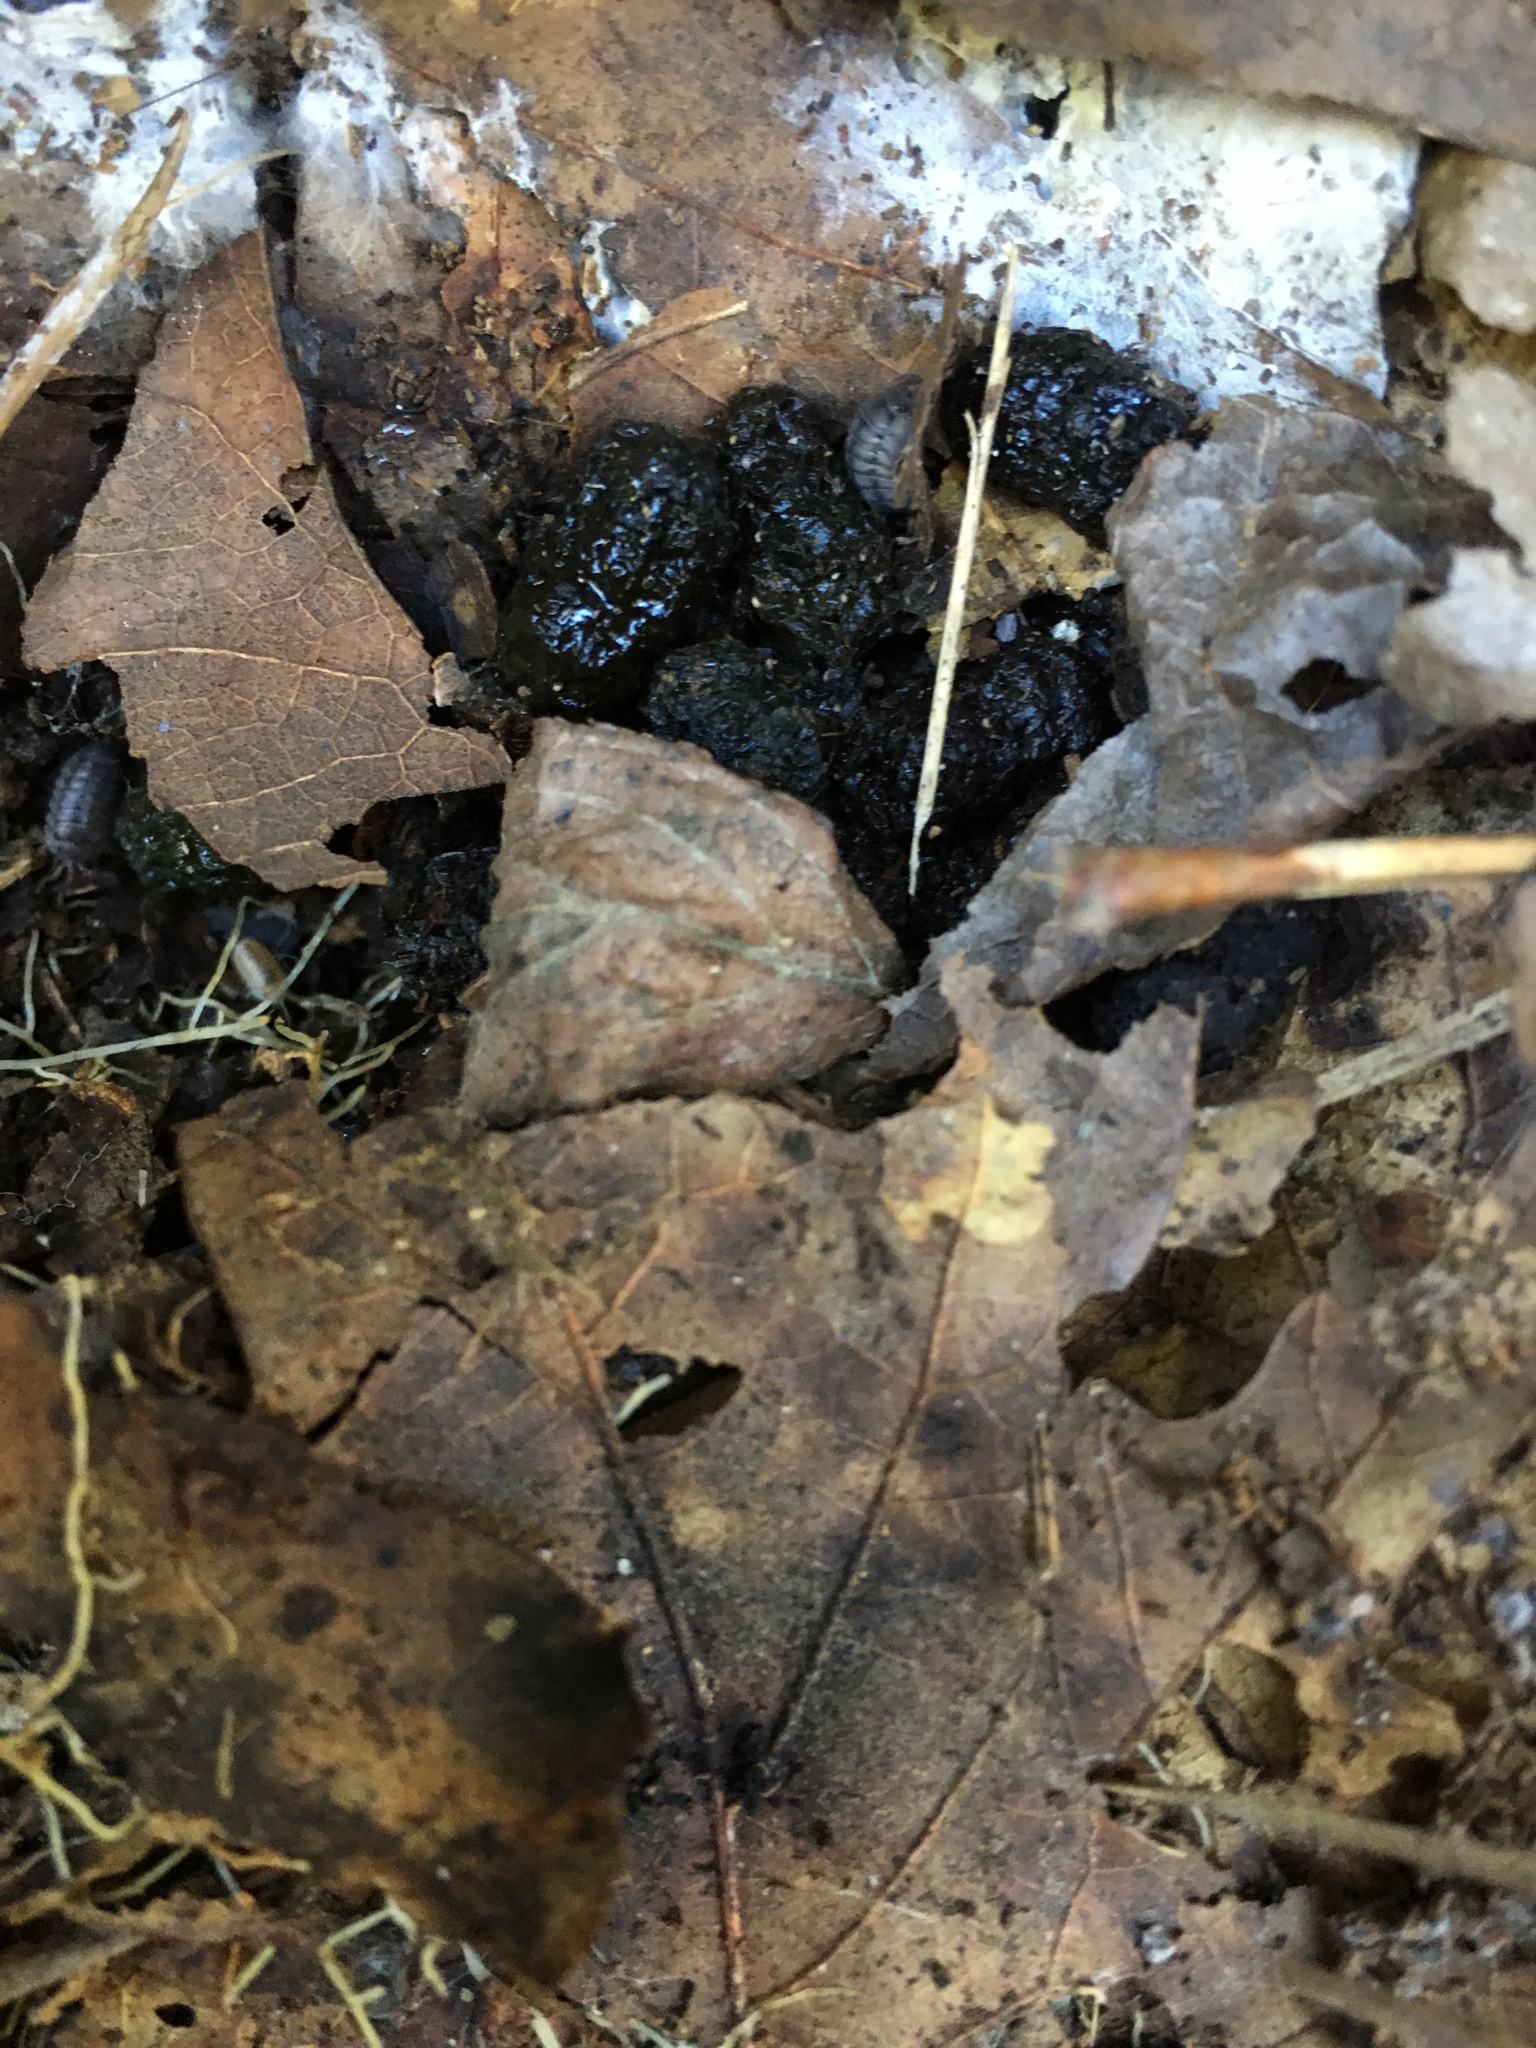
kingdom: Animalia
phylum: Arthropoda
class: Insecta
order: Lepidoptera
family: Erebidae
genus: Hypercompe
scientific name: Hypercompe scribonia
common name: Giant leopard moth
